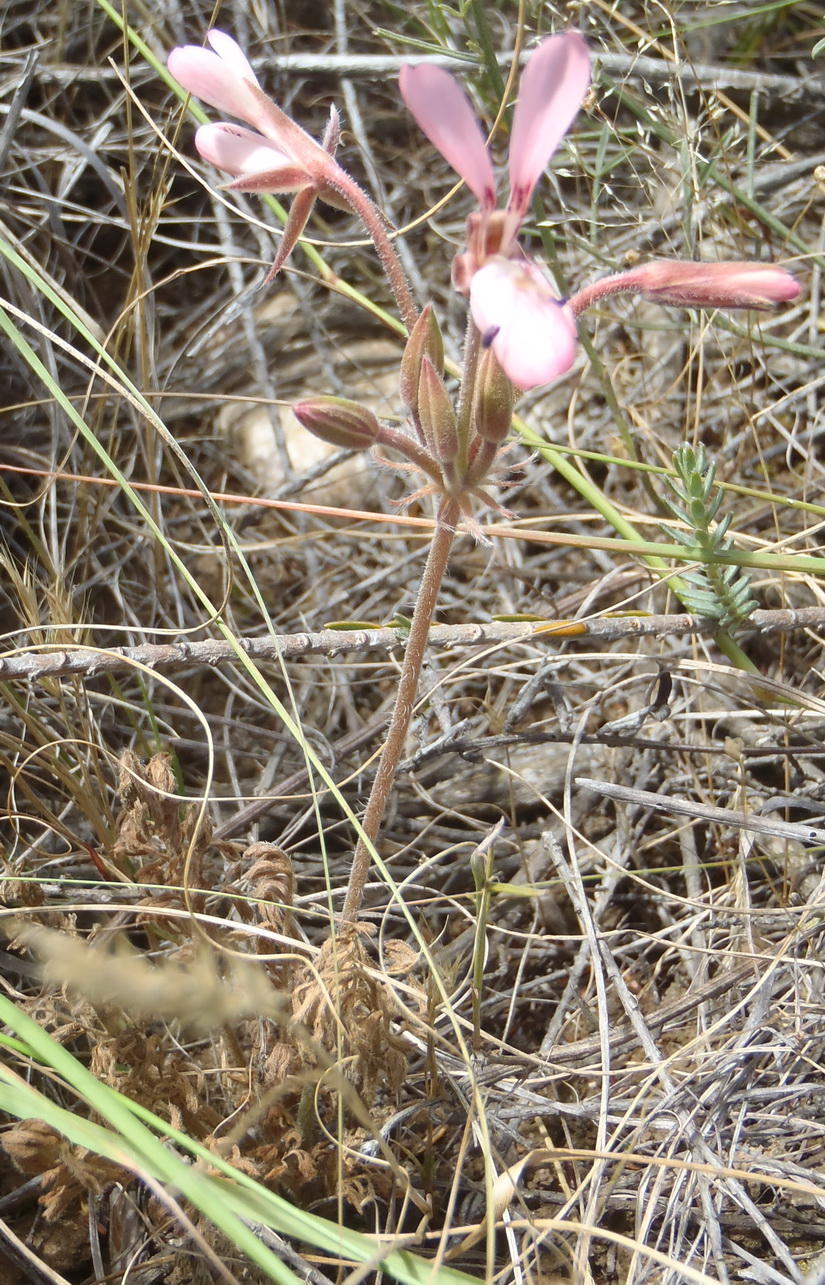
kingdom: Plantae
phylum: Tracheophyta
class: Magnoliopsida
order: Geraniales
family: Geraniaceae
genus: Pelargonium
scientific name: Pelargonium rapaceum
